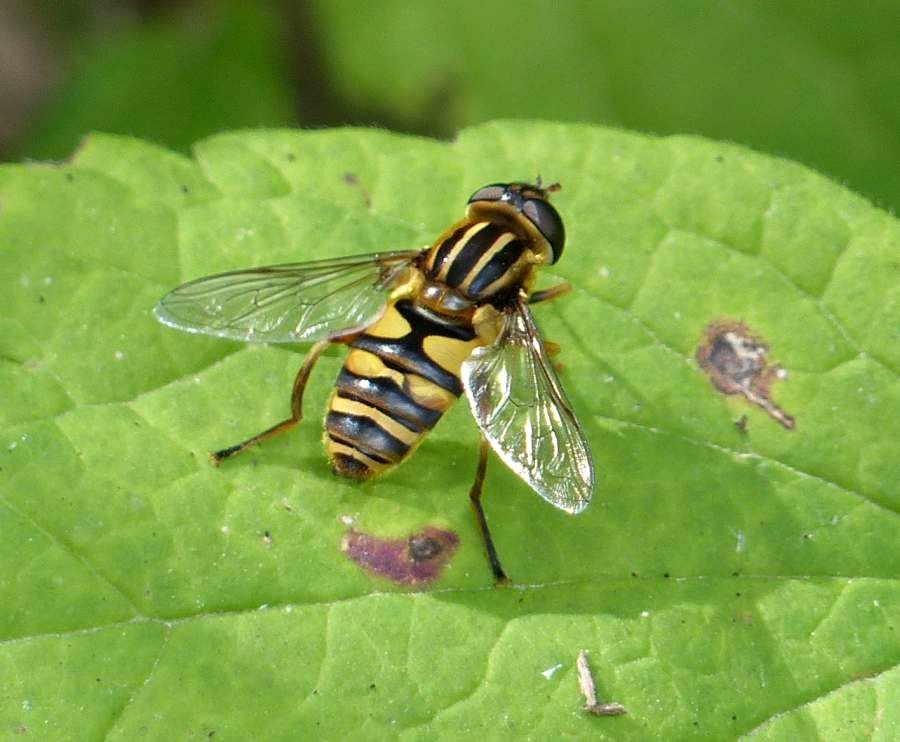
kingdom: Animalia
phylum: Arthropoda
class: Insecta
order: Diptera
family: Syrphidae
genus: Helophilus
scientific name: Helophilus fasciatus
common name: Narrow-headed marsh fly
